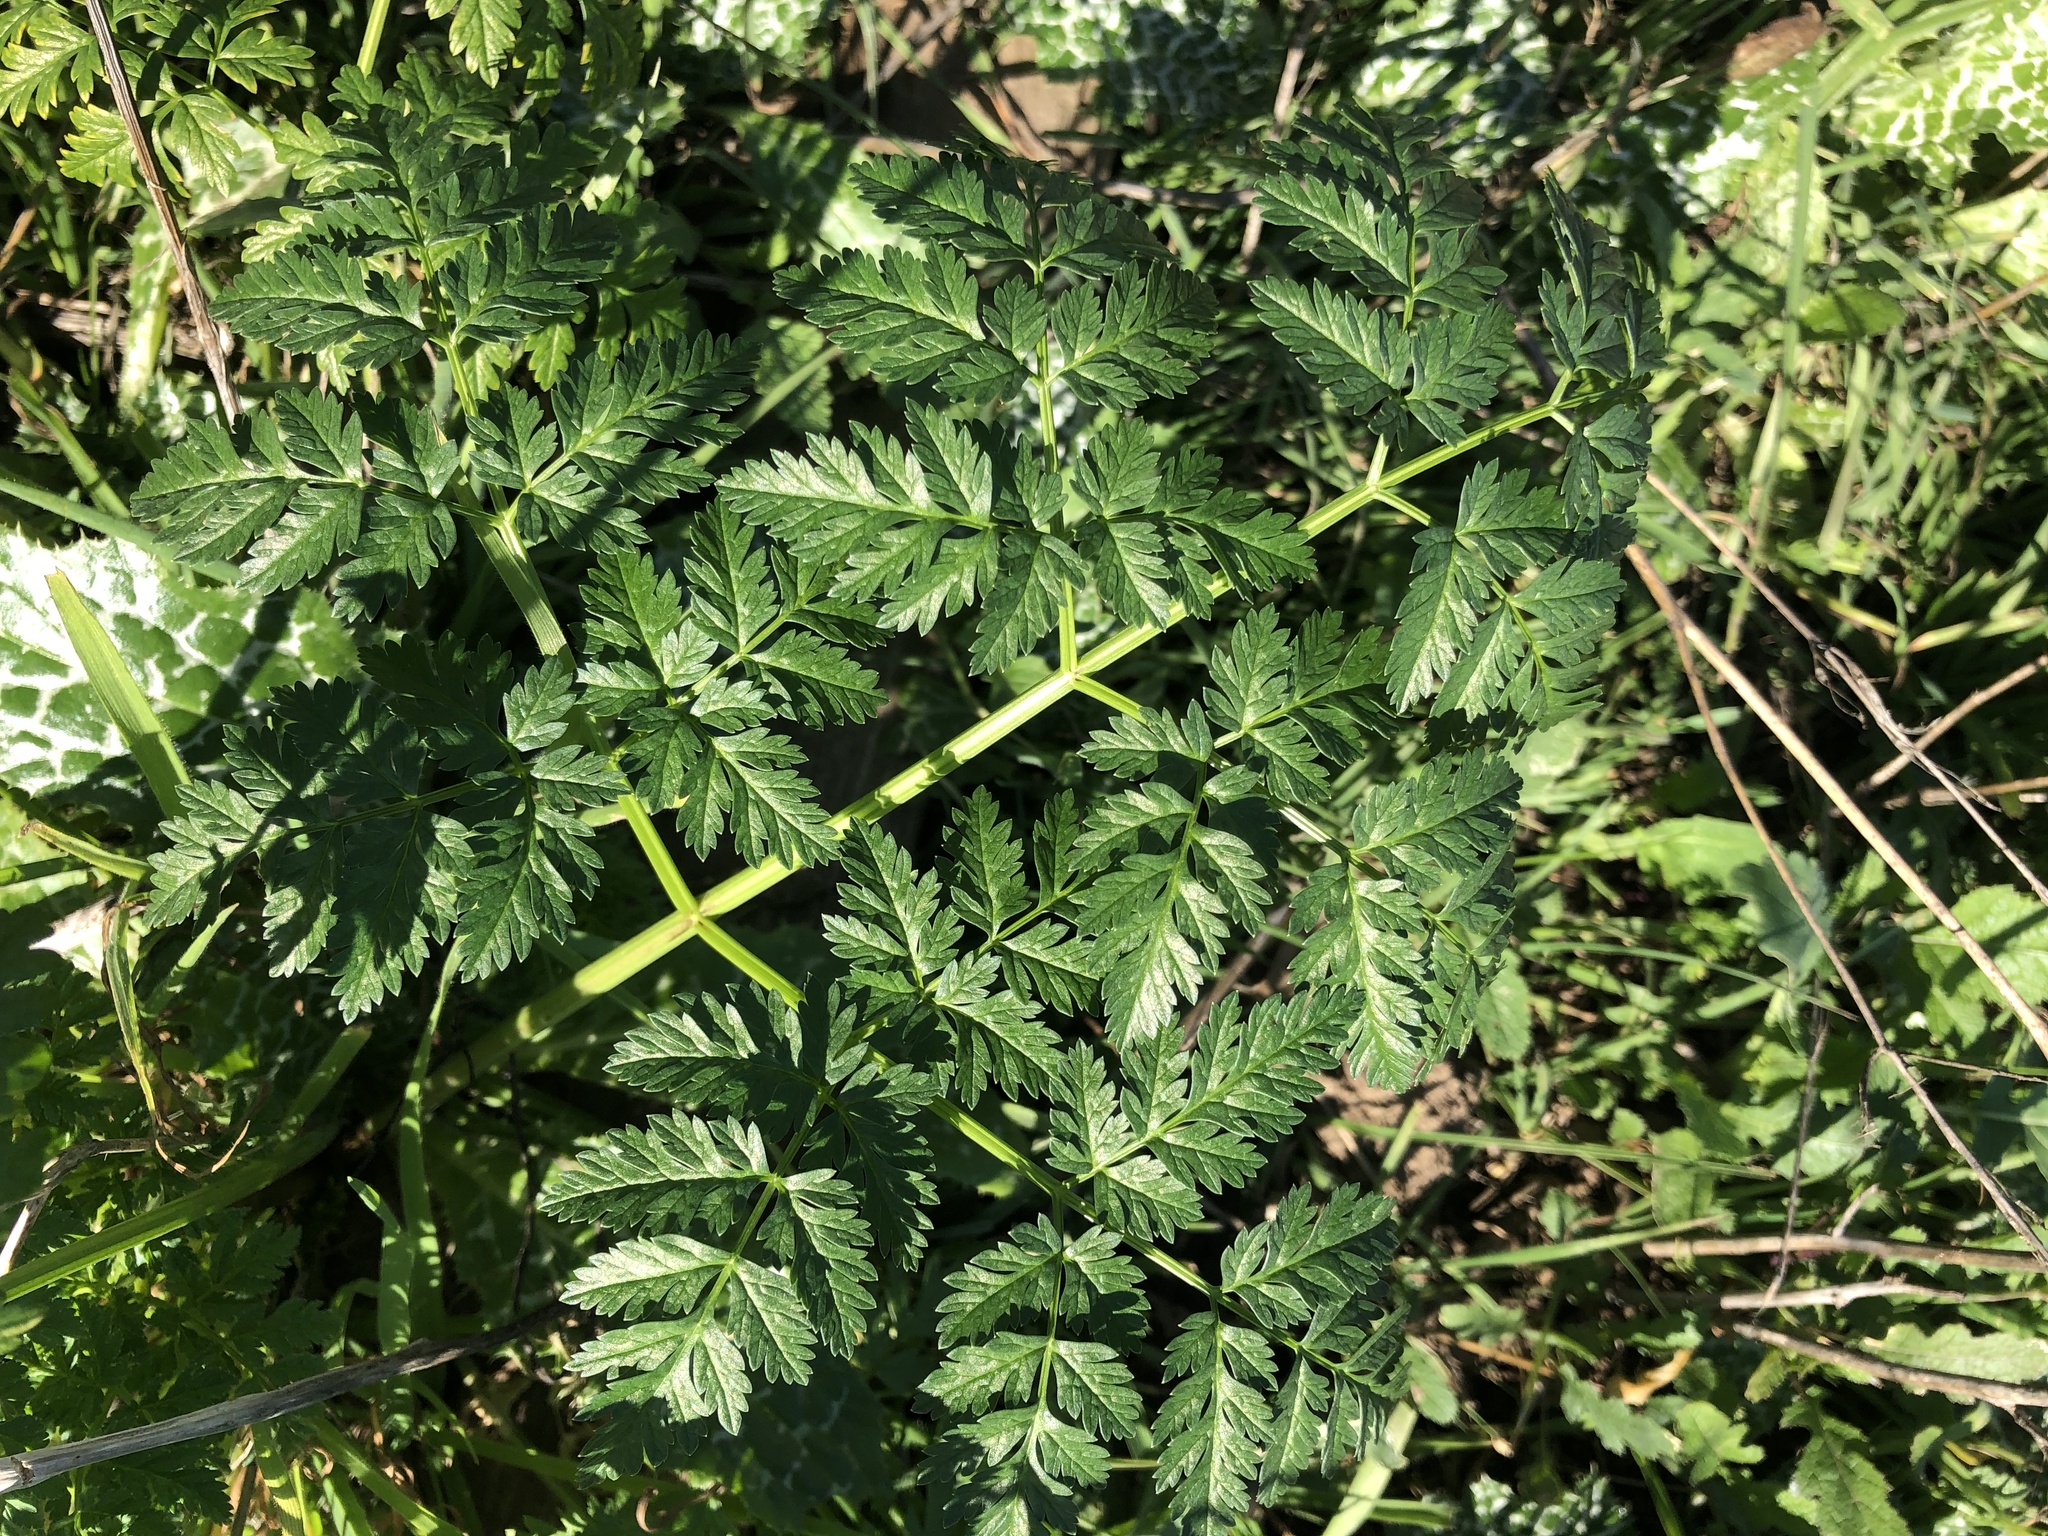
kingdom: Plantae
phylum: Tracheophyta
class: Magnoliopsida
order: Apiales
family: Apiaceae
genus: Conium
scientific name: Conium maculatum
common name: Hemlock
